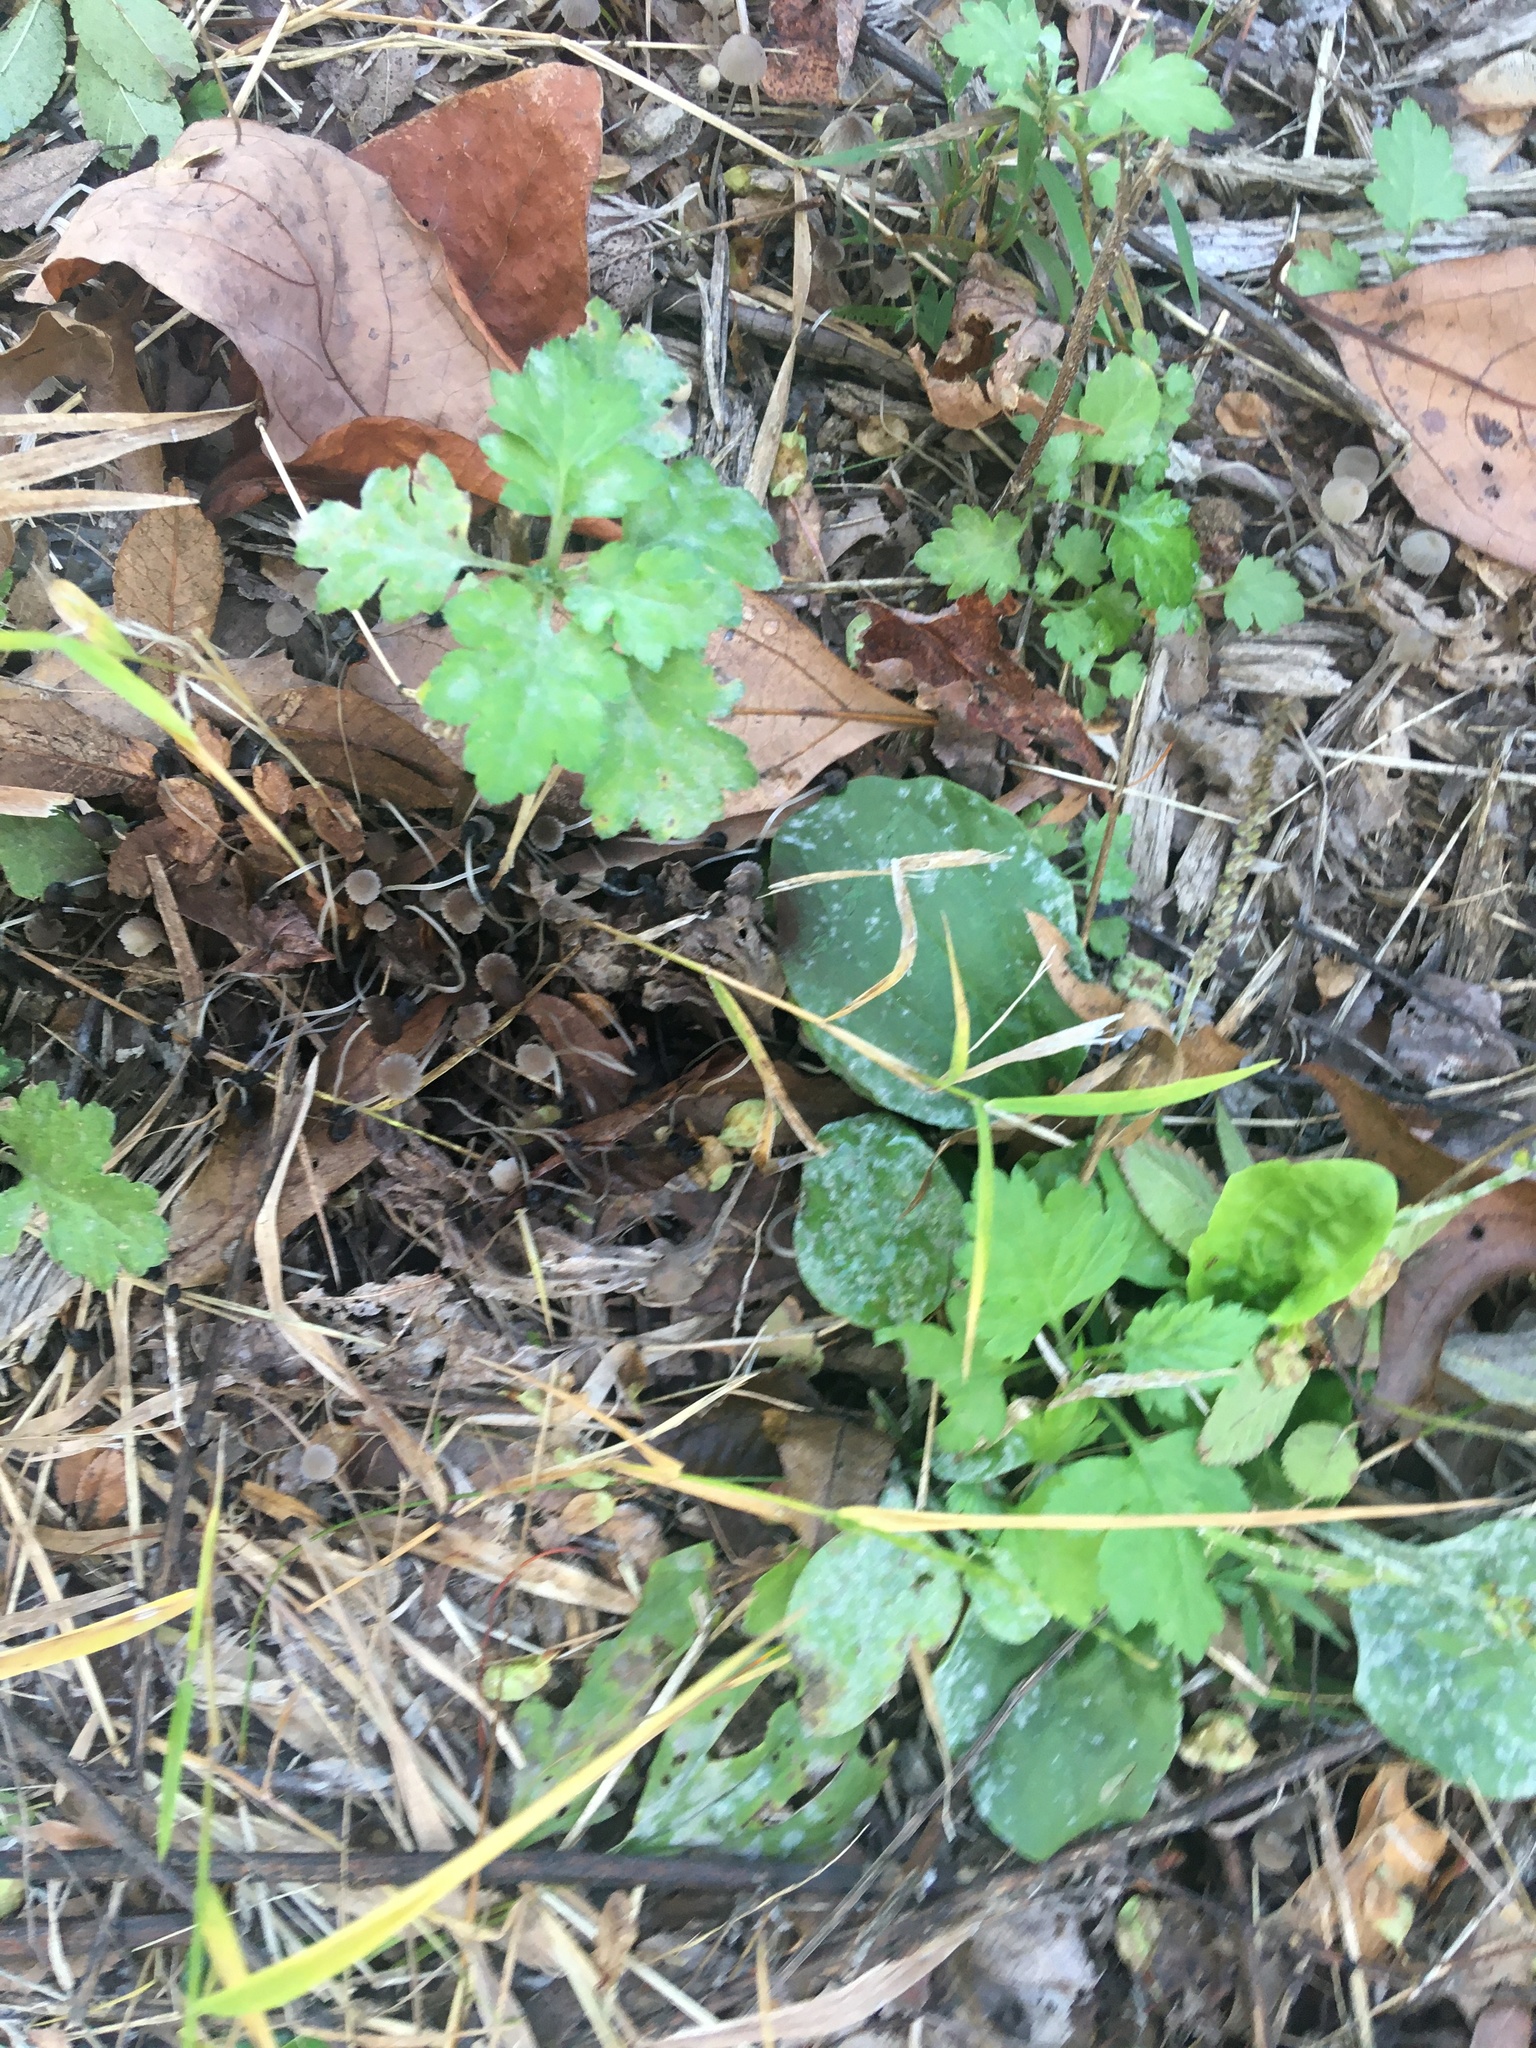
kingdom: Plantae
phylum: Tracheophyta
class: Magnoliopsida
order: Asterales
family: Asteraceae
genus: Artemisia
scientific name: Artemisia vulgaris
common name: Mugwort
